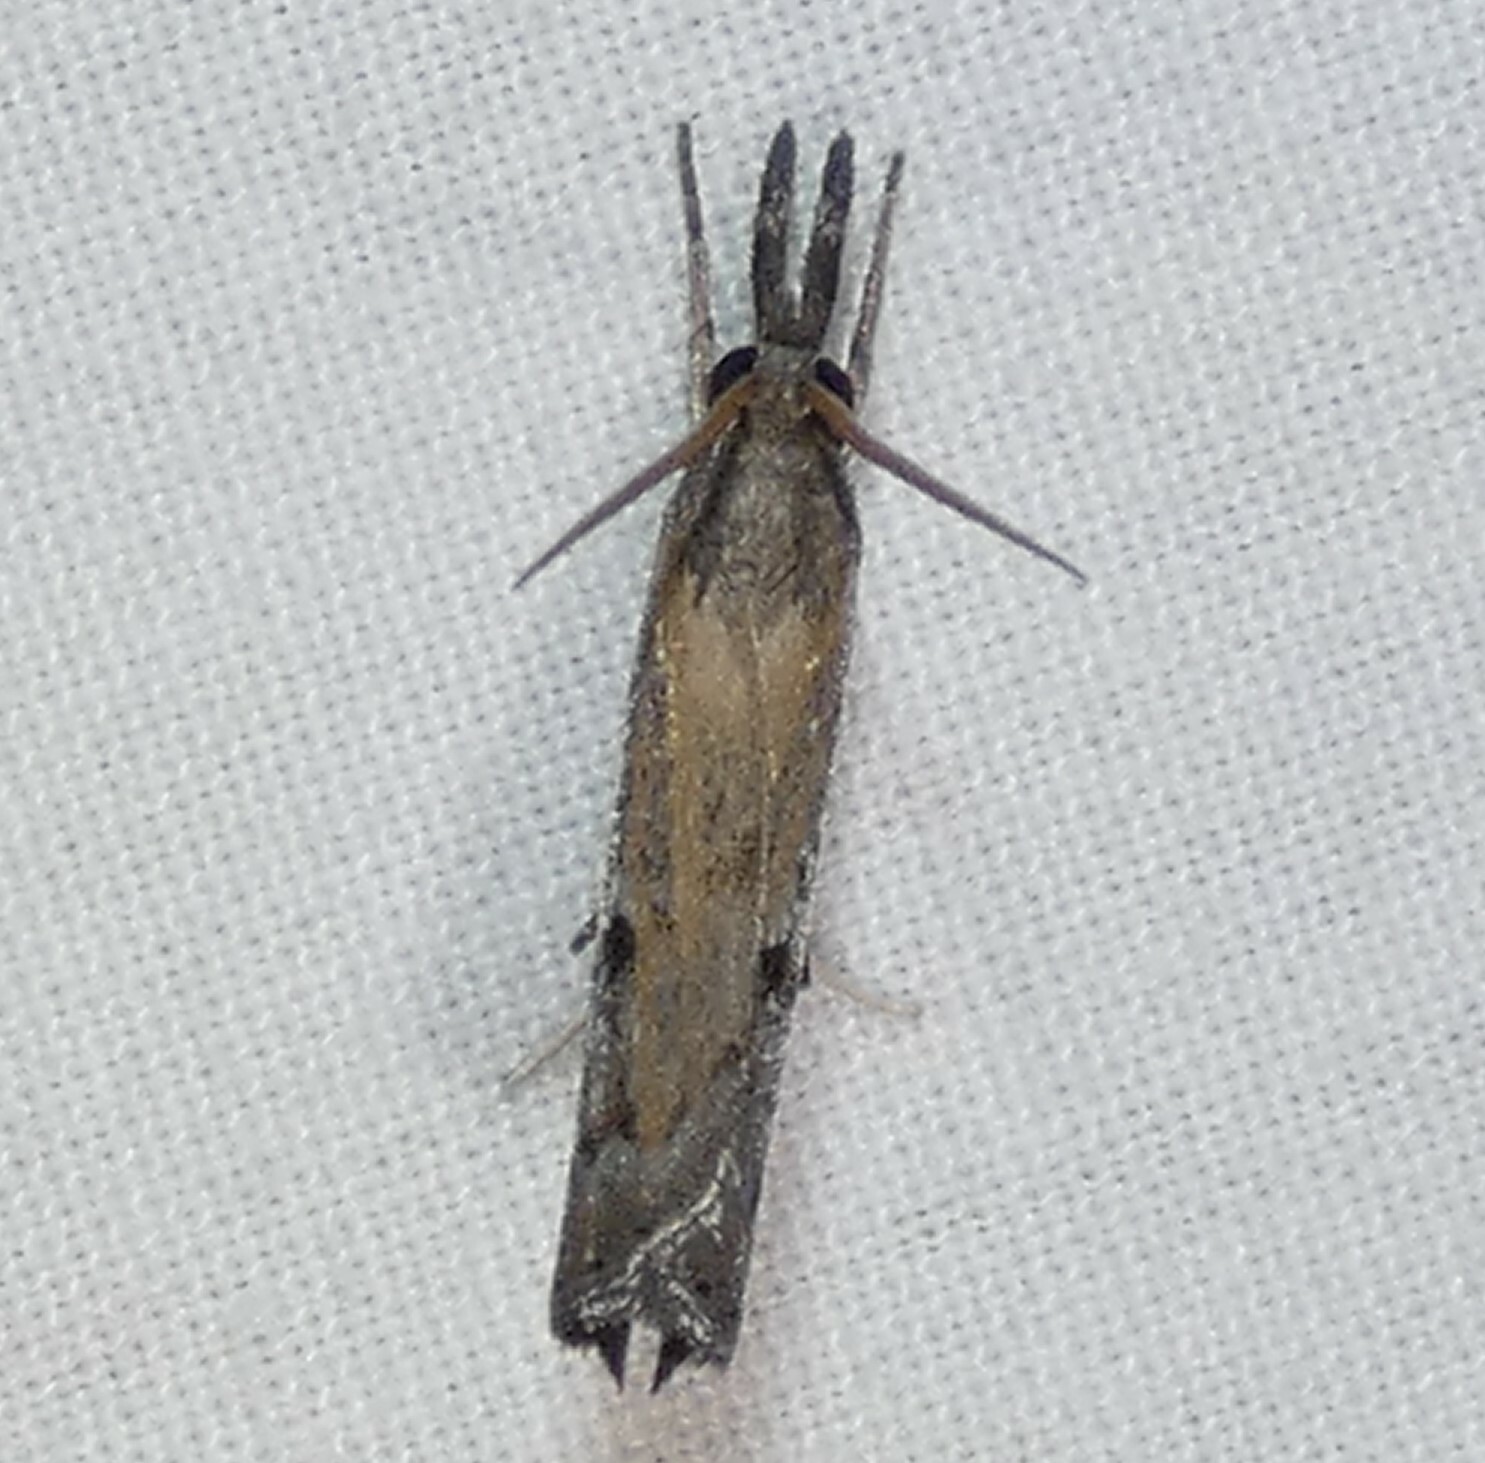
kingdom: Animalia
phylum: Arthropoda
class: Insecta
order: Lepidoptera
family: Crambidae
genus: Fissicrambus
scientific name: Fissicrambus mutabilis
